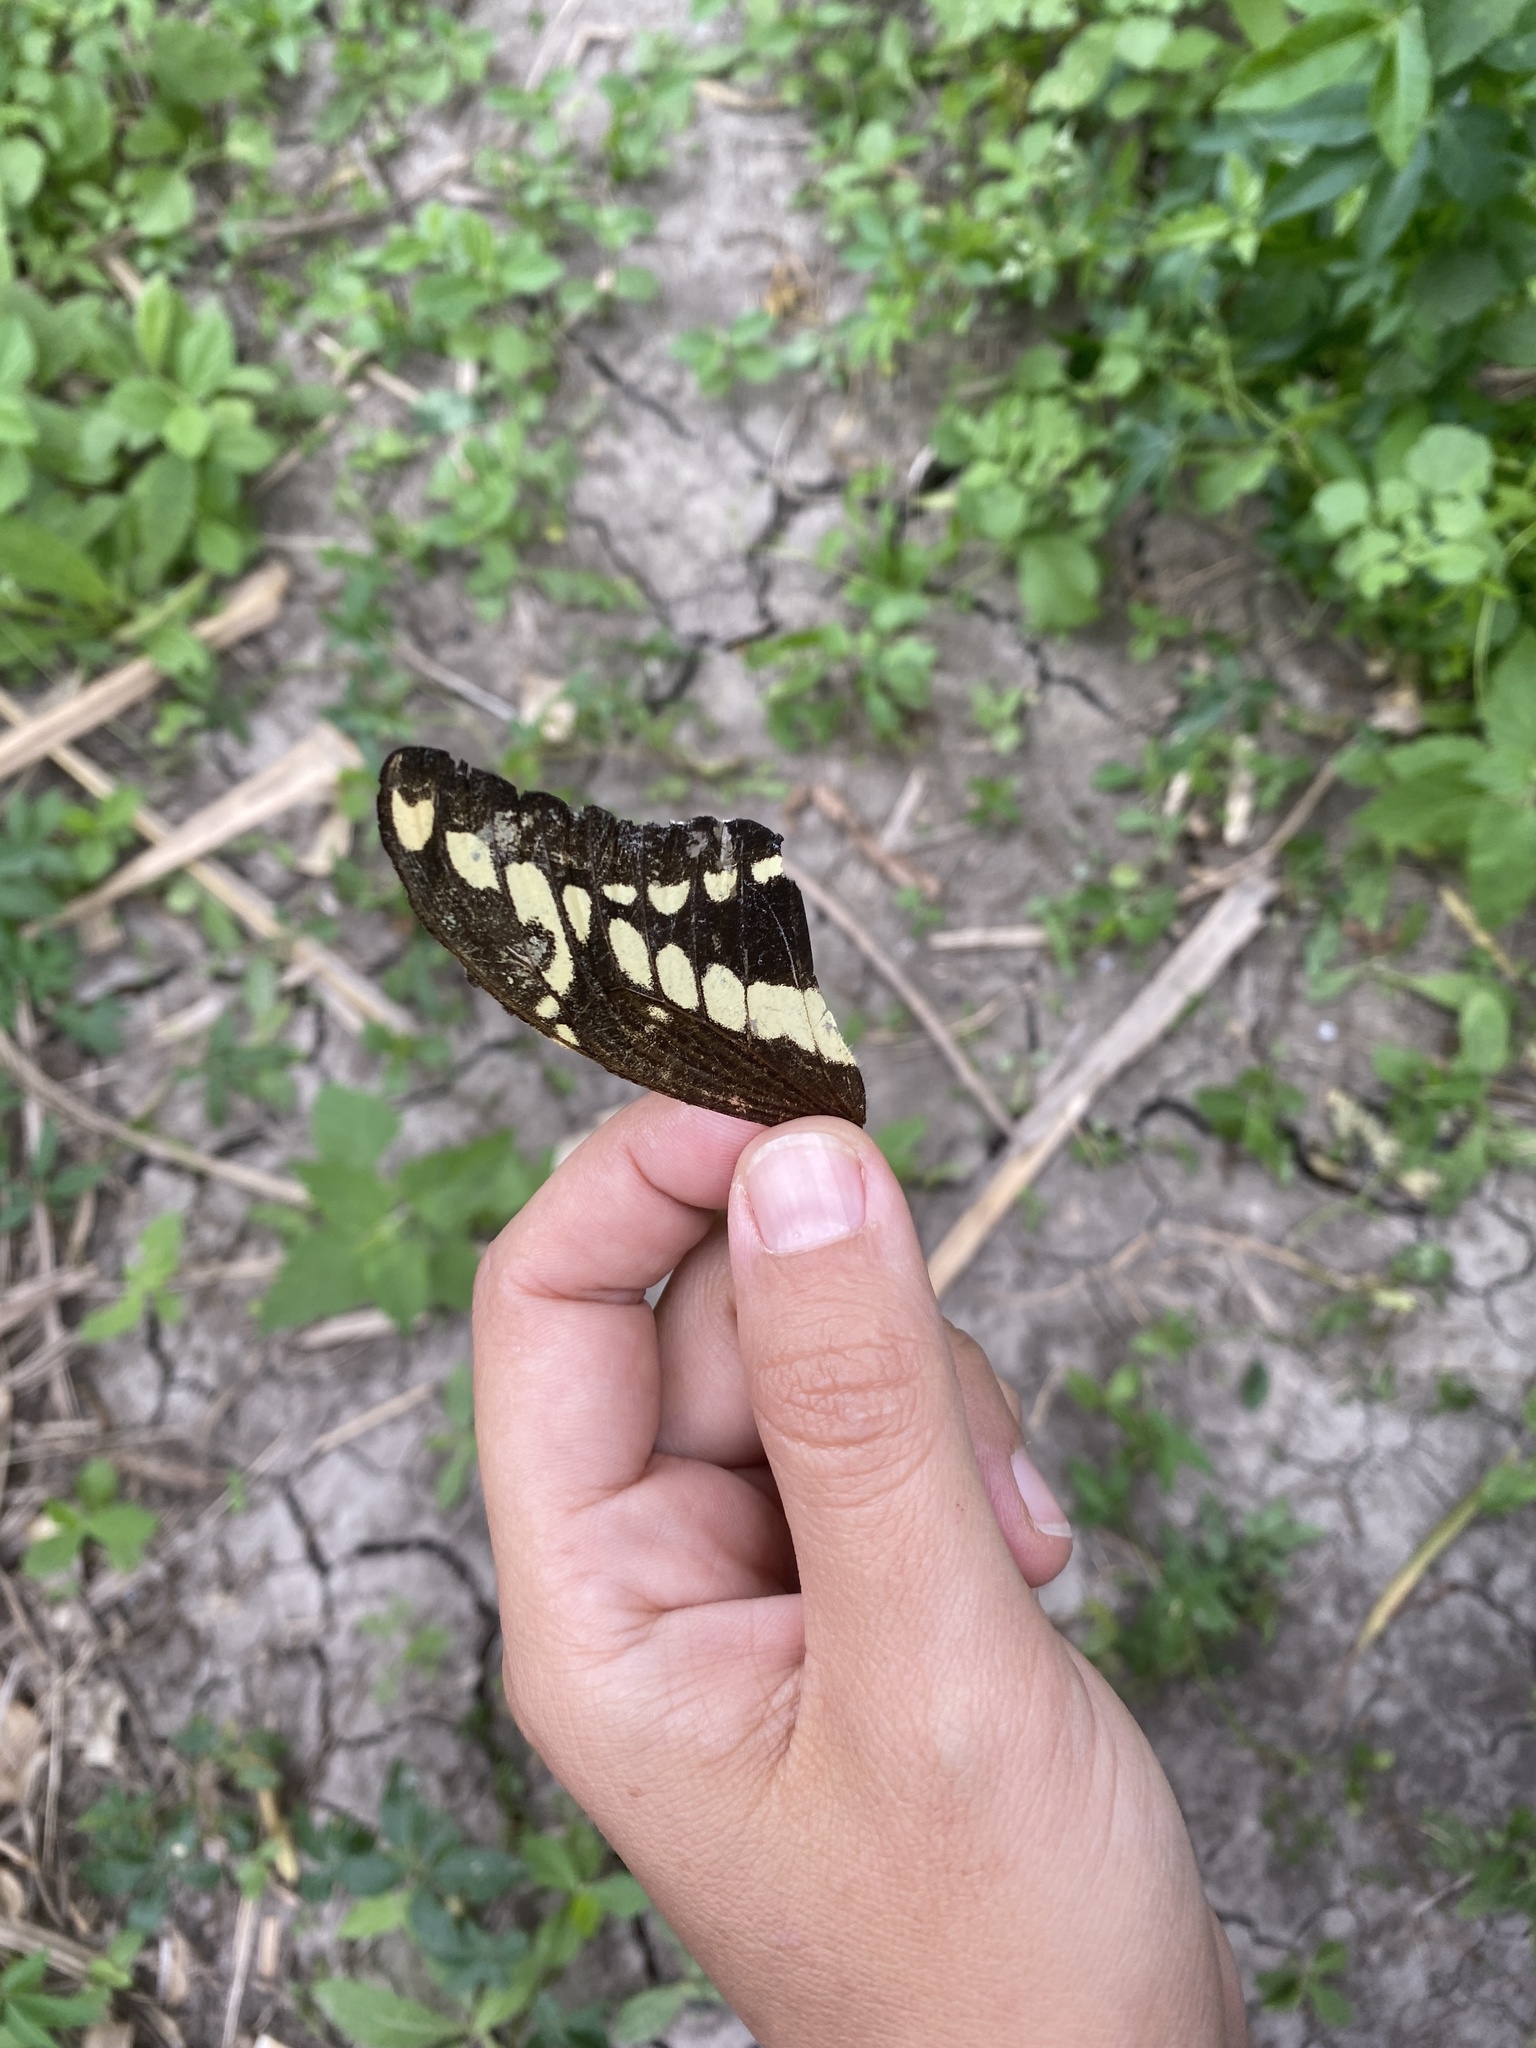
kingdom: Animalia
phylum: Arthropoda
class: Insecta
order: Lepidoptera
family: Papilionidae
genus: Papilio
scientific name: Papilio thoas
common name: King swallowtail
